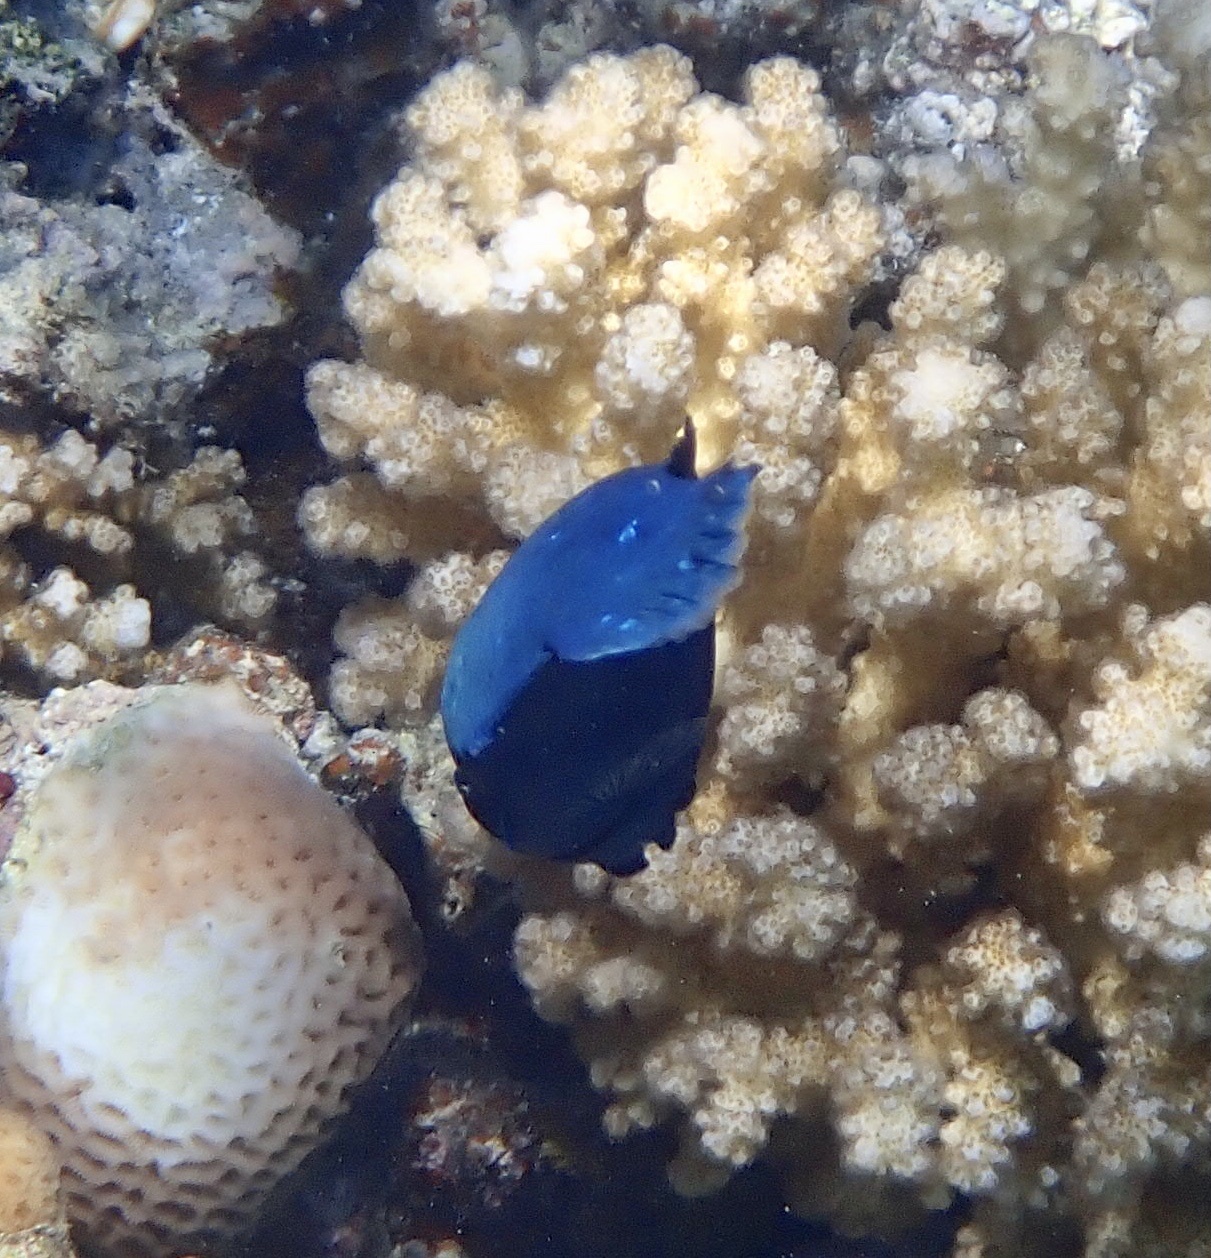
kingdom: Animalia
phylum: Chordata
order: Perciformes
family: Labridae
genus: Larabicus
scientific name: Larabicus quadrilineatus
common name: Fourline wrasse
